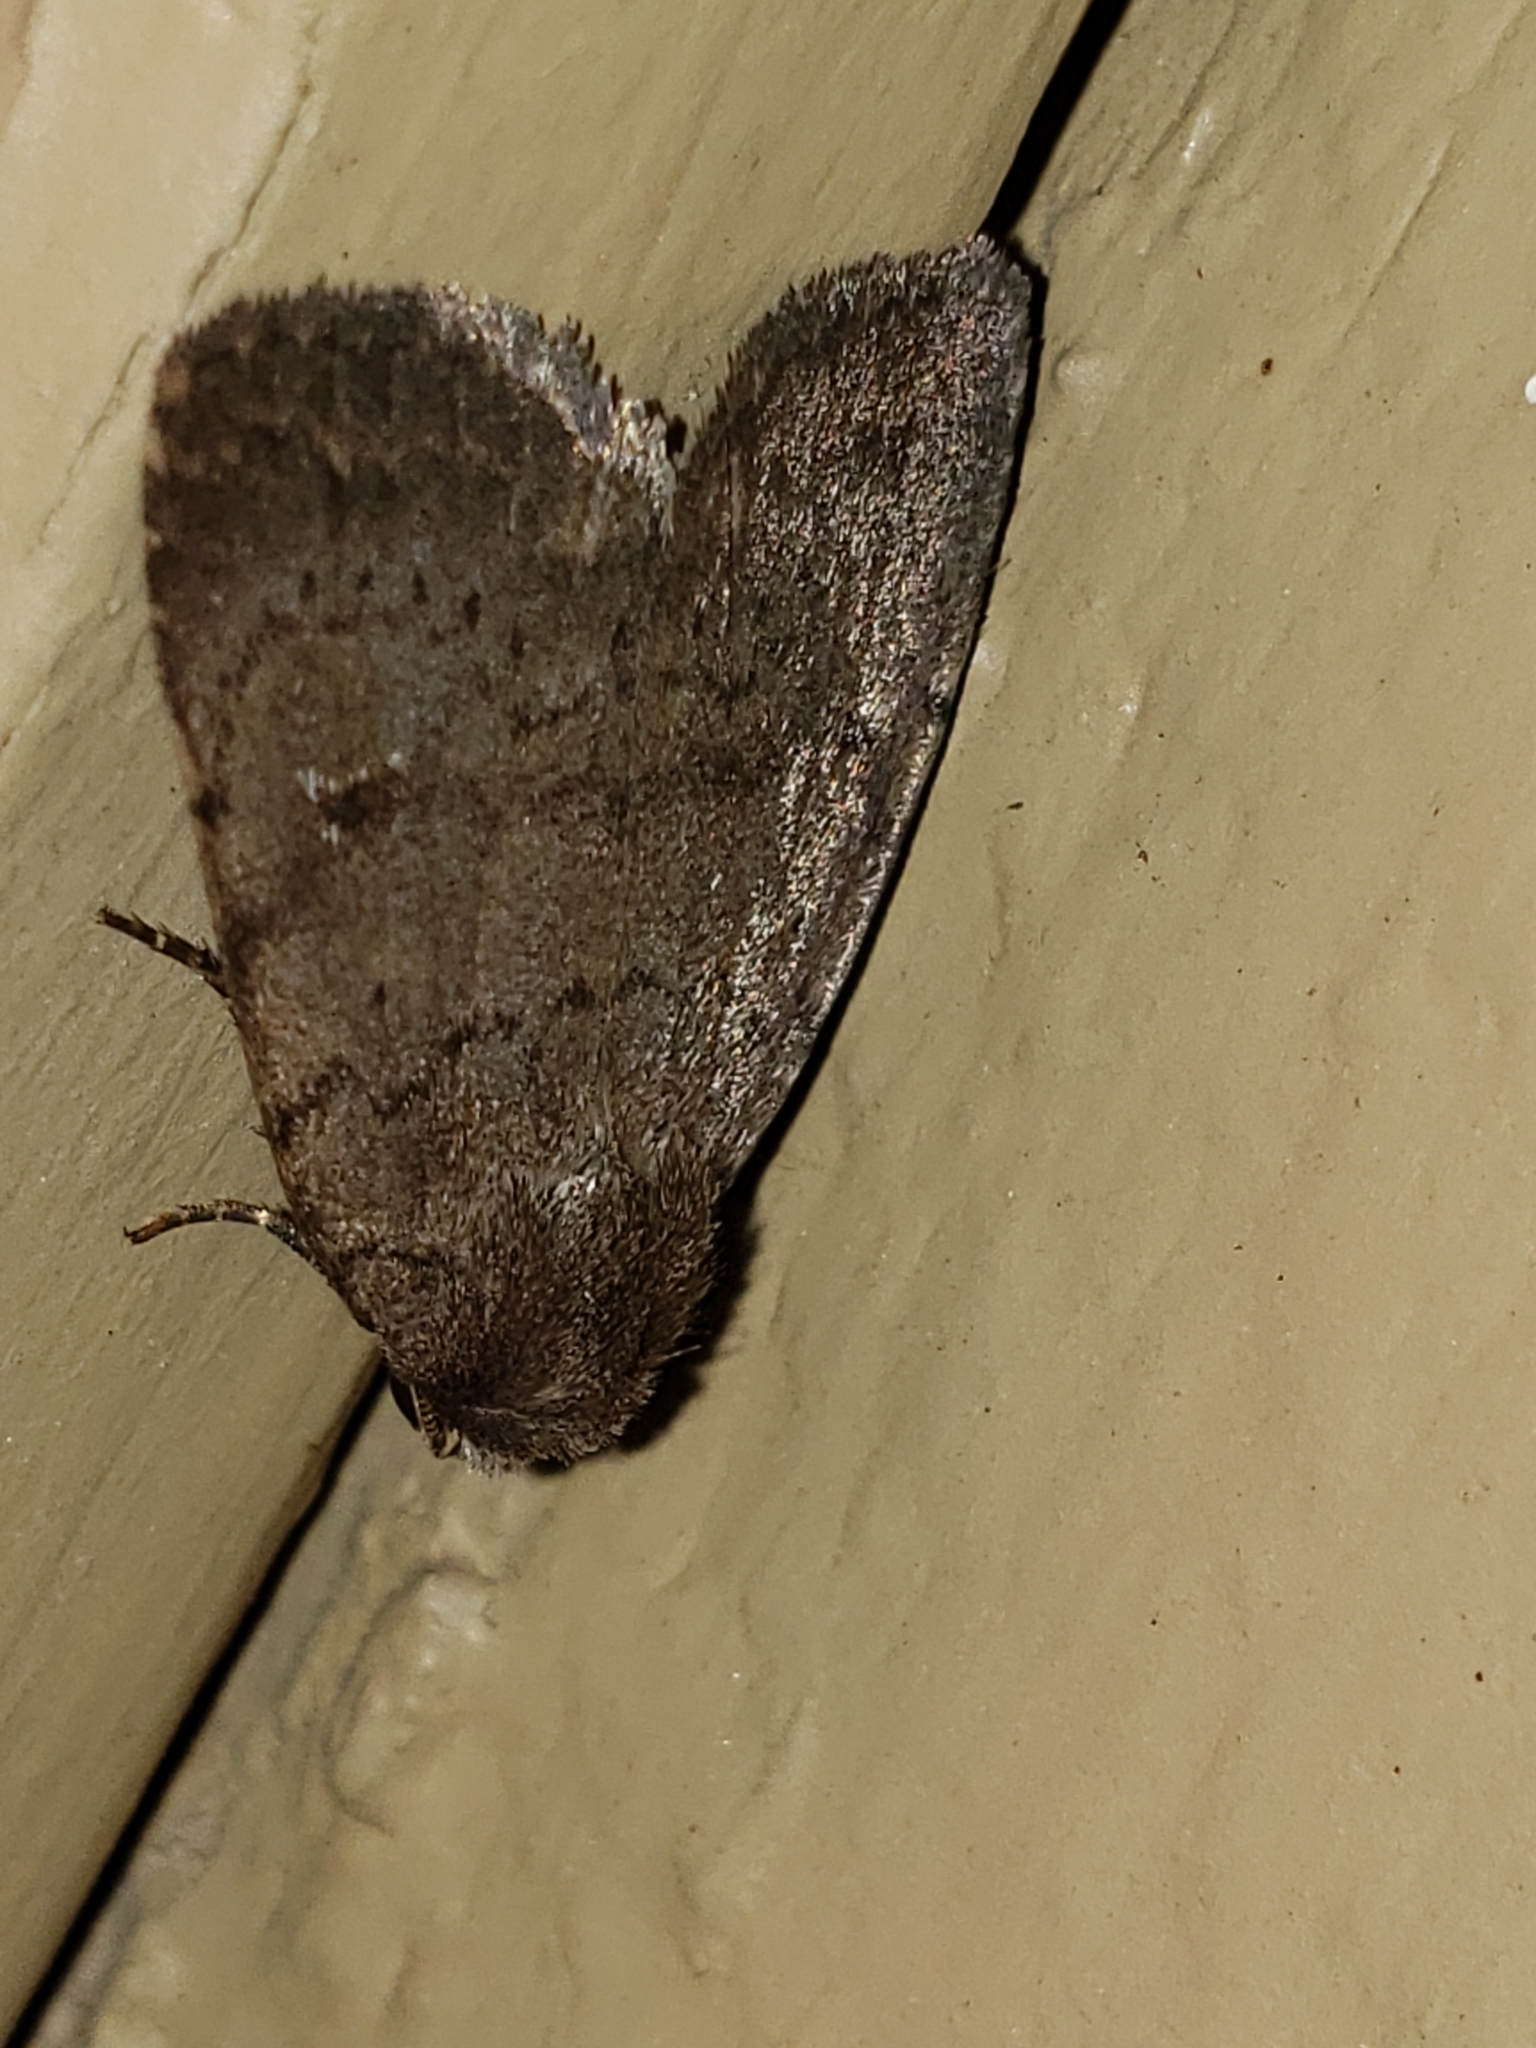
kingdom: Animalia
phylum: Arthropoda
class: Insecta
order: Lepidoptera
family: Noctuidae
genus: Athetis
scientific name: Athetis tarda
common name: Slowpoke moth
